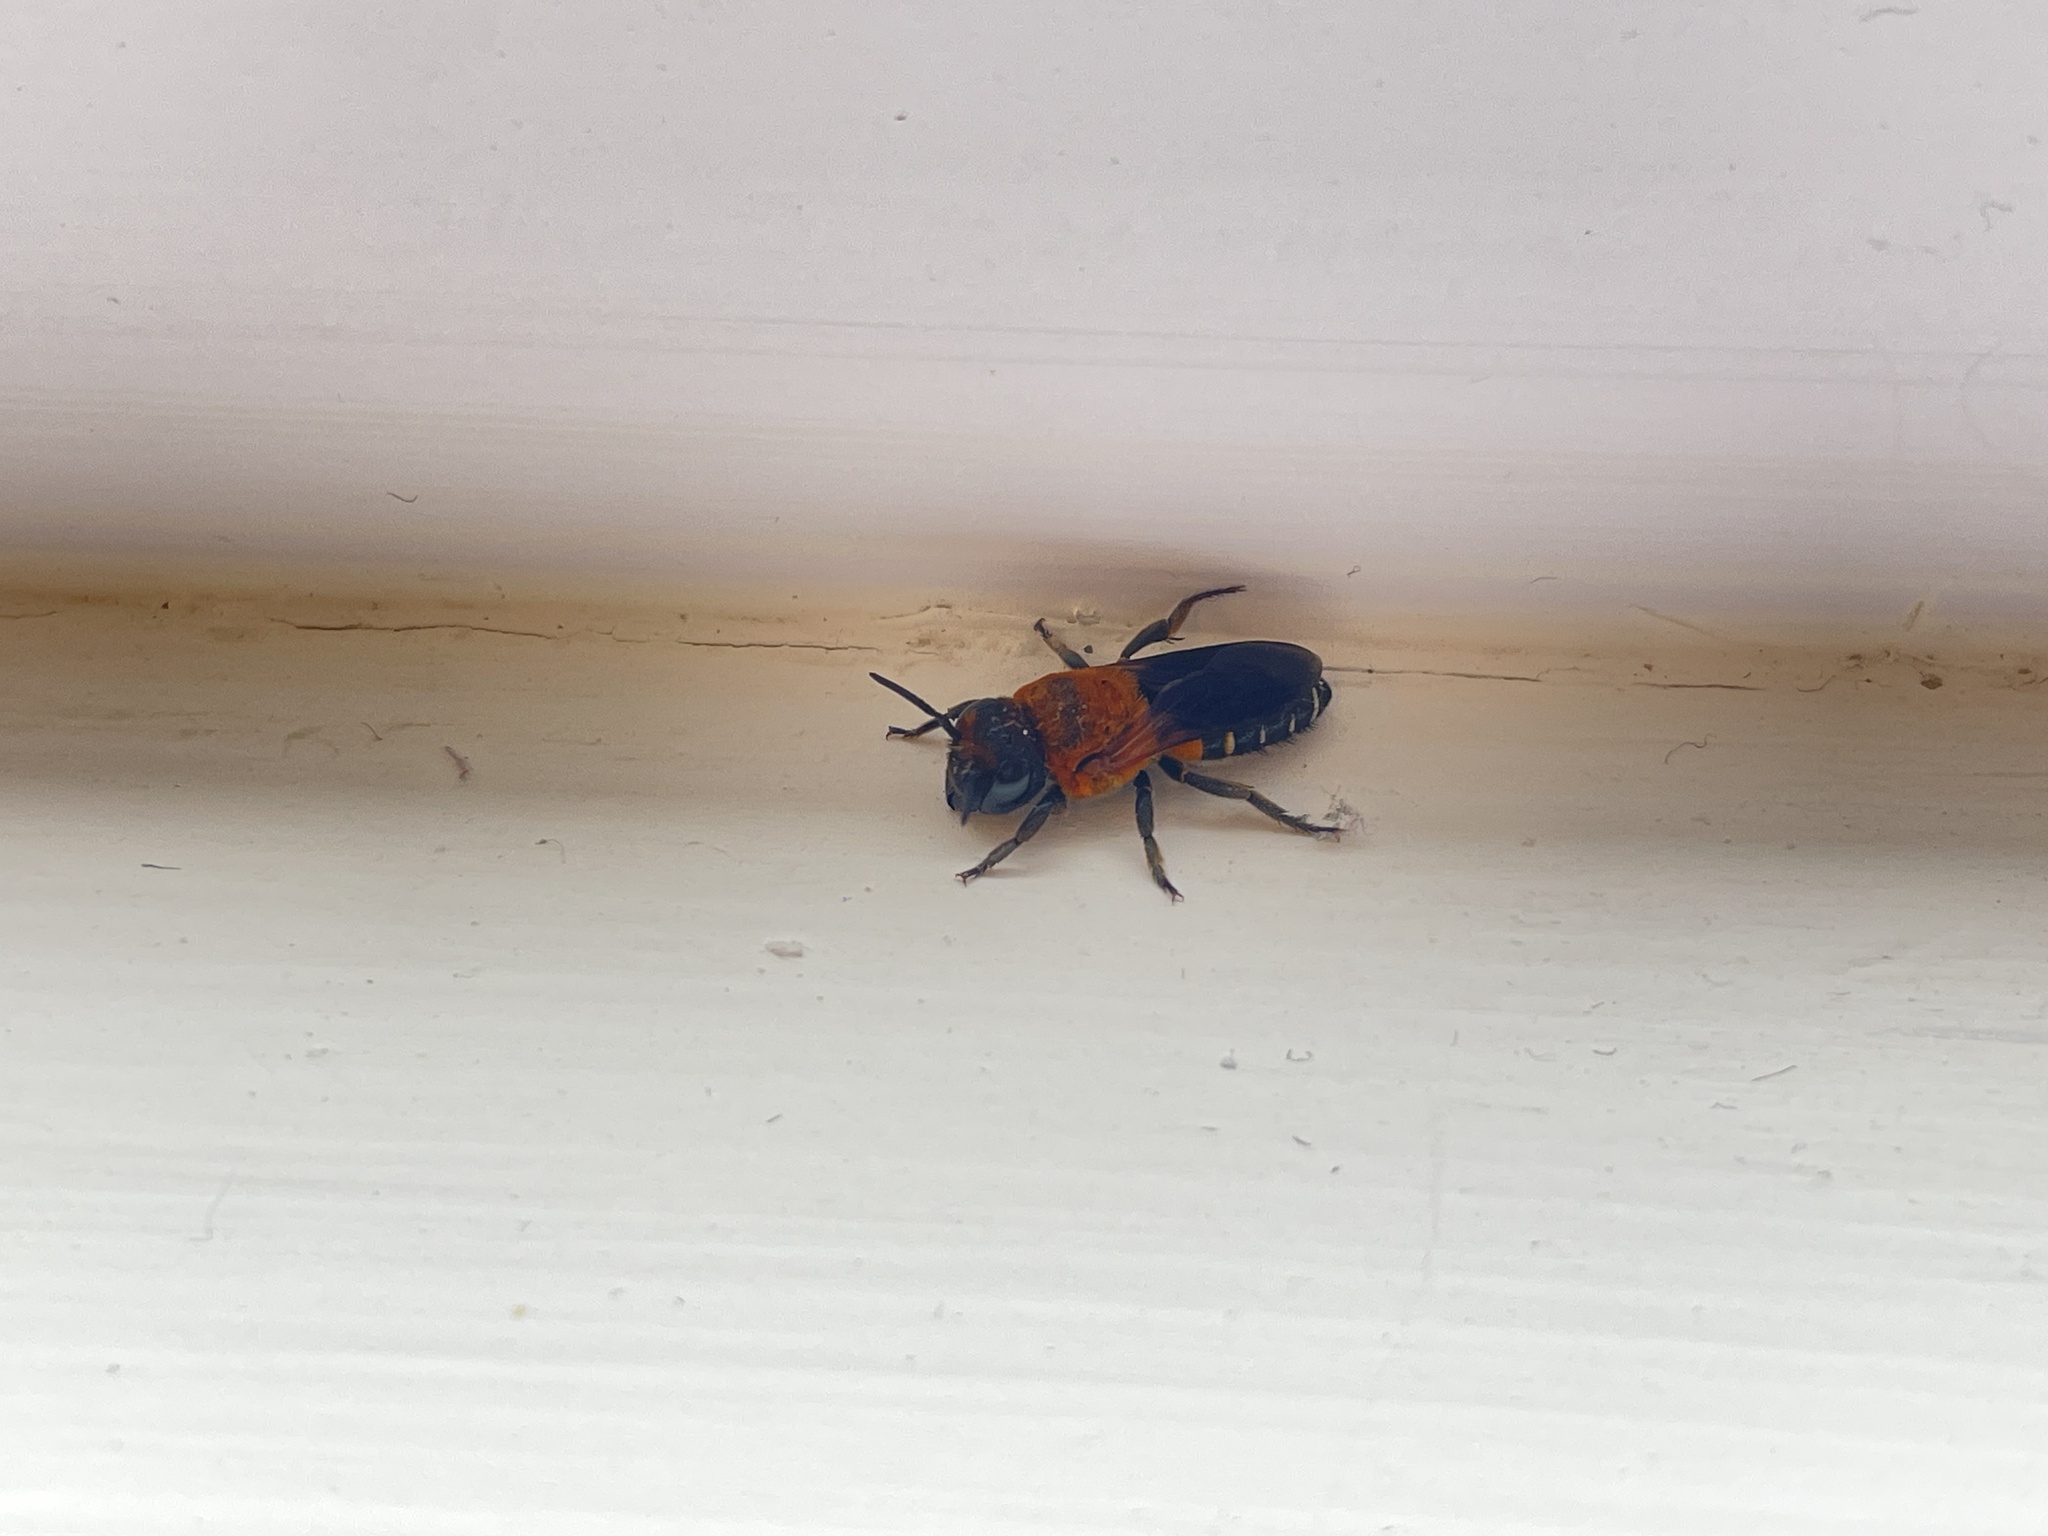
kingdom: Animalia
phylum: Arthropoda
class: Insecta
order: Hymenoptera
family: Megachilidae
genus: Megachile
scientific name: Megachile umbripennis
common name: Shadow-winged resin bee
